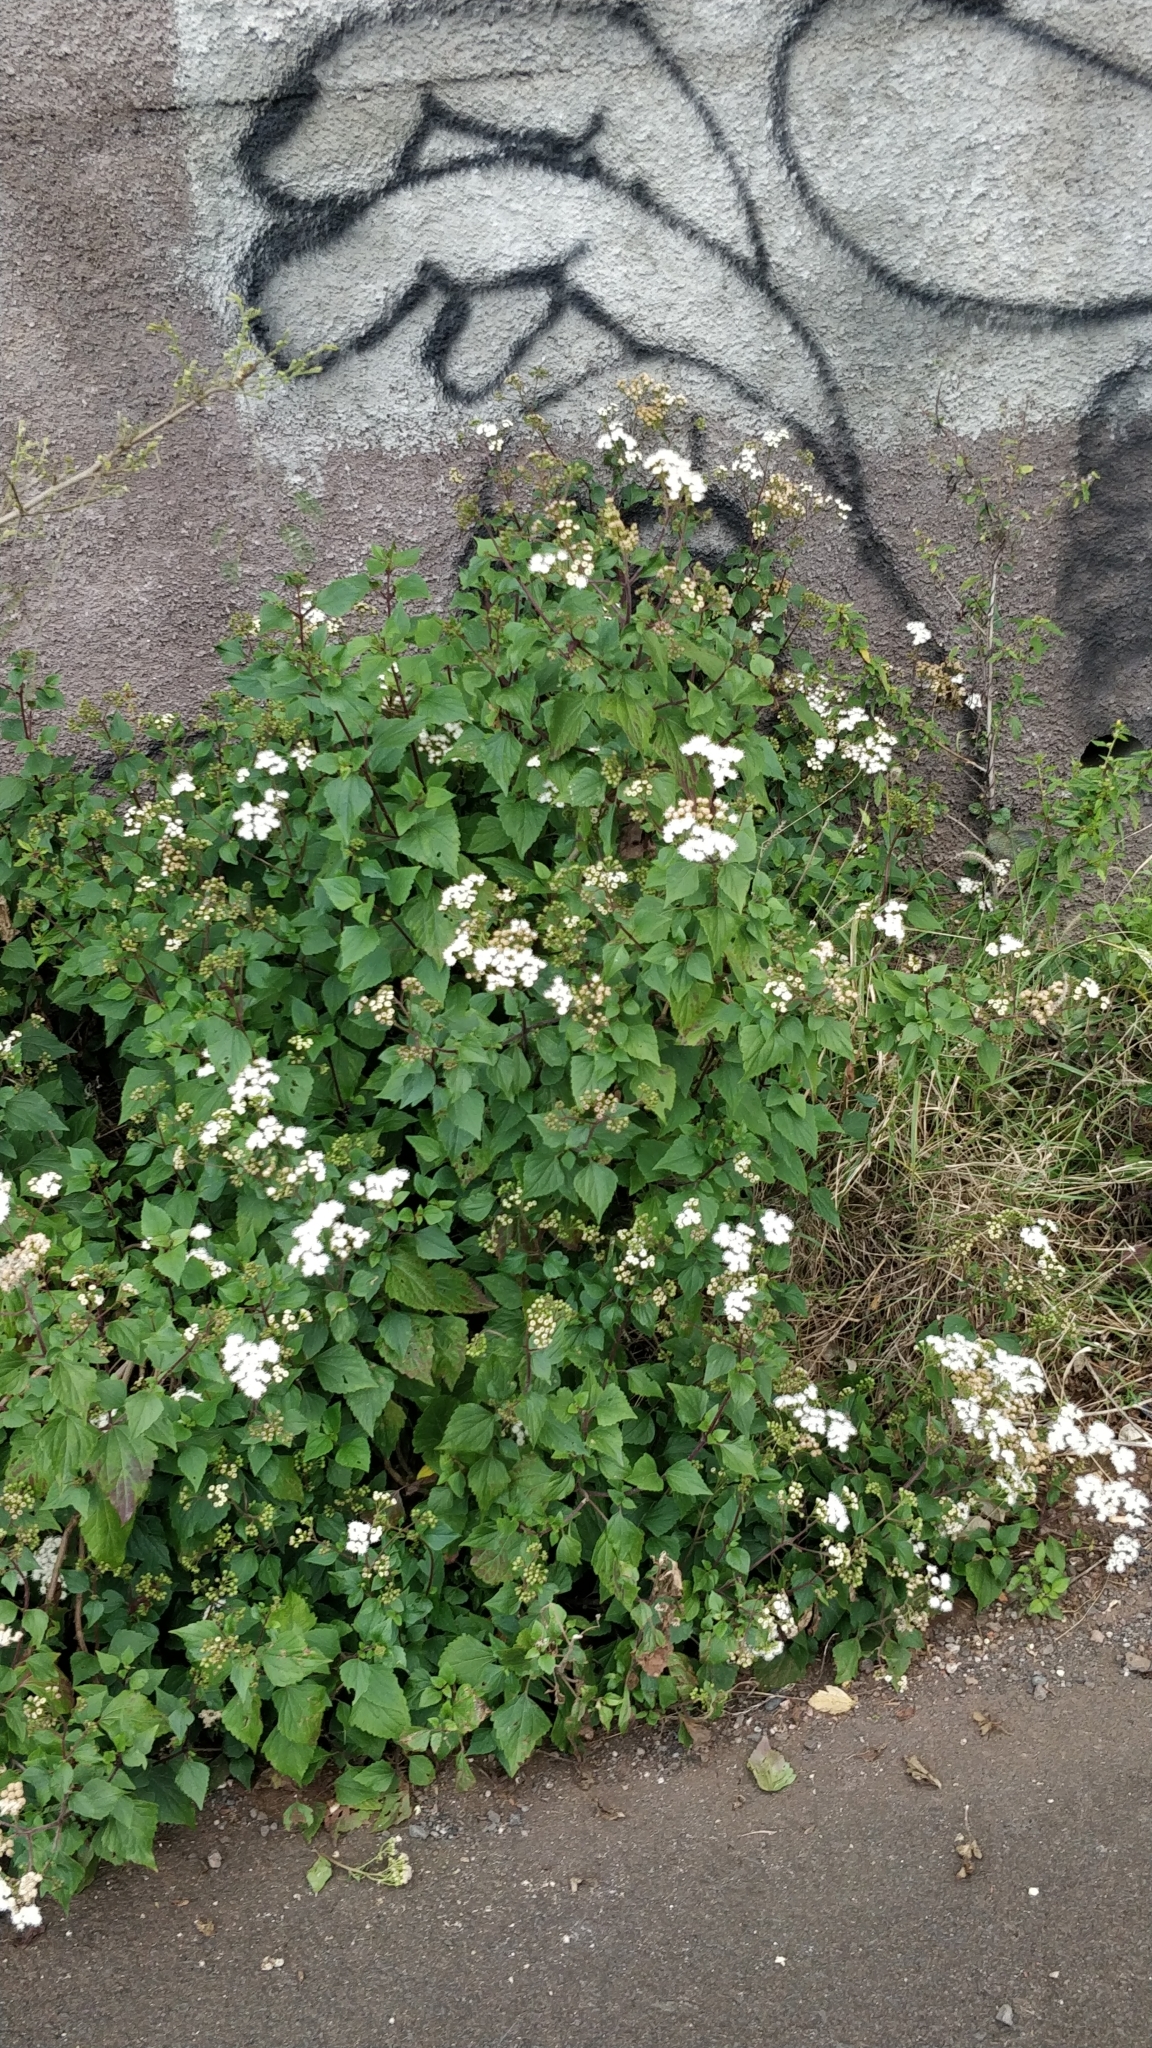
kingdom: Plantae
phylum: Tracheophyta
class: Magnoliopsida
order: Asterales
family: Asteraceae
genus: Ageratina
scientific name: Ageratina adenophora
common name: Sticky snakeroot
